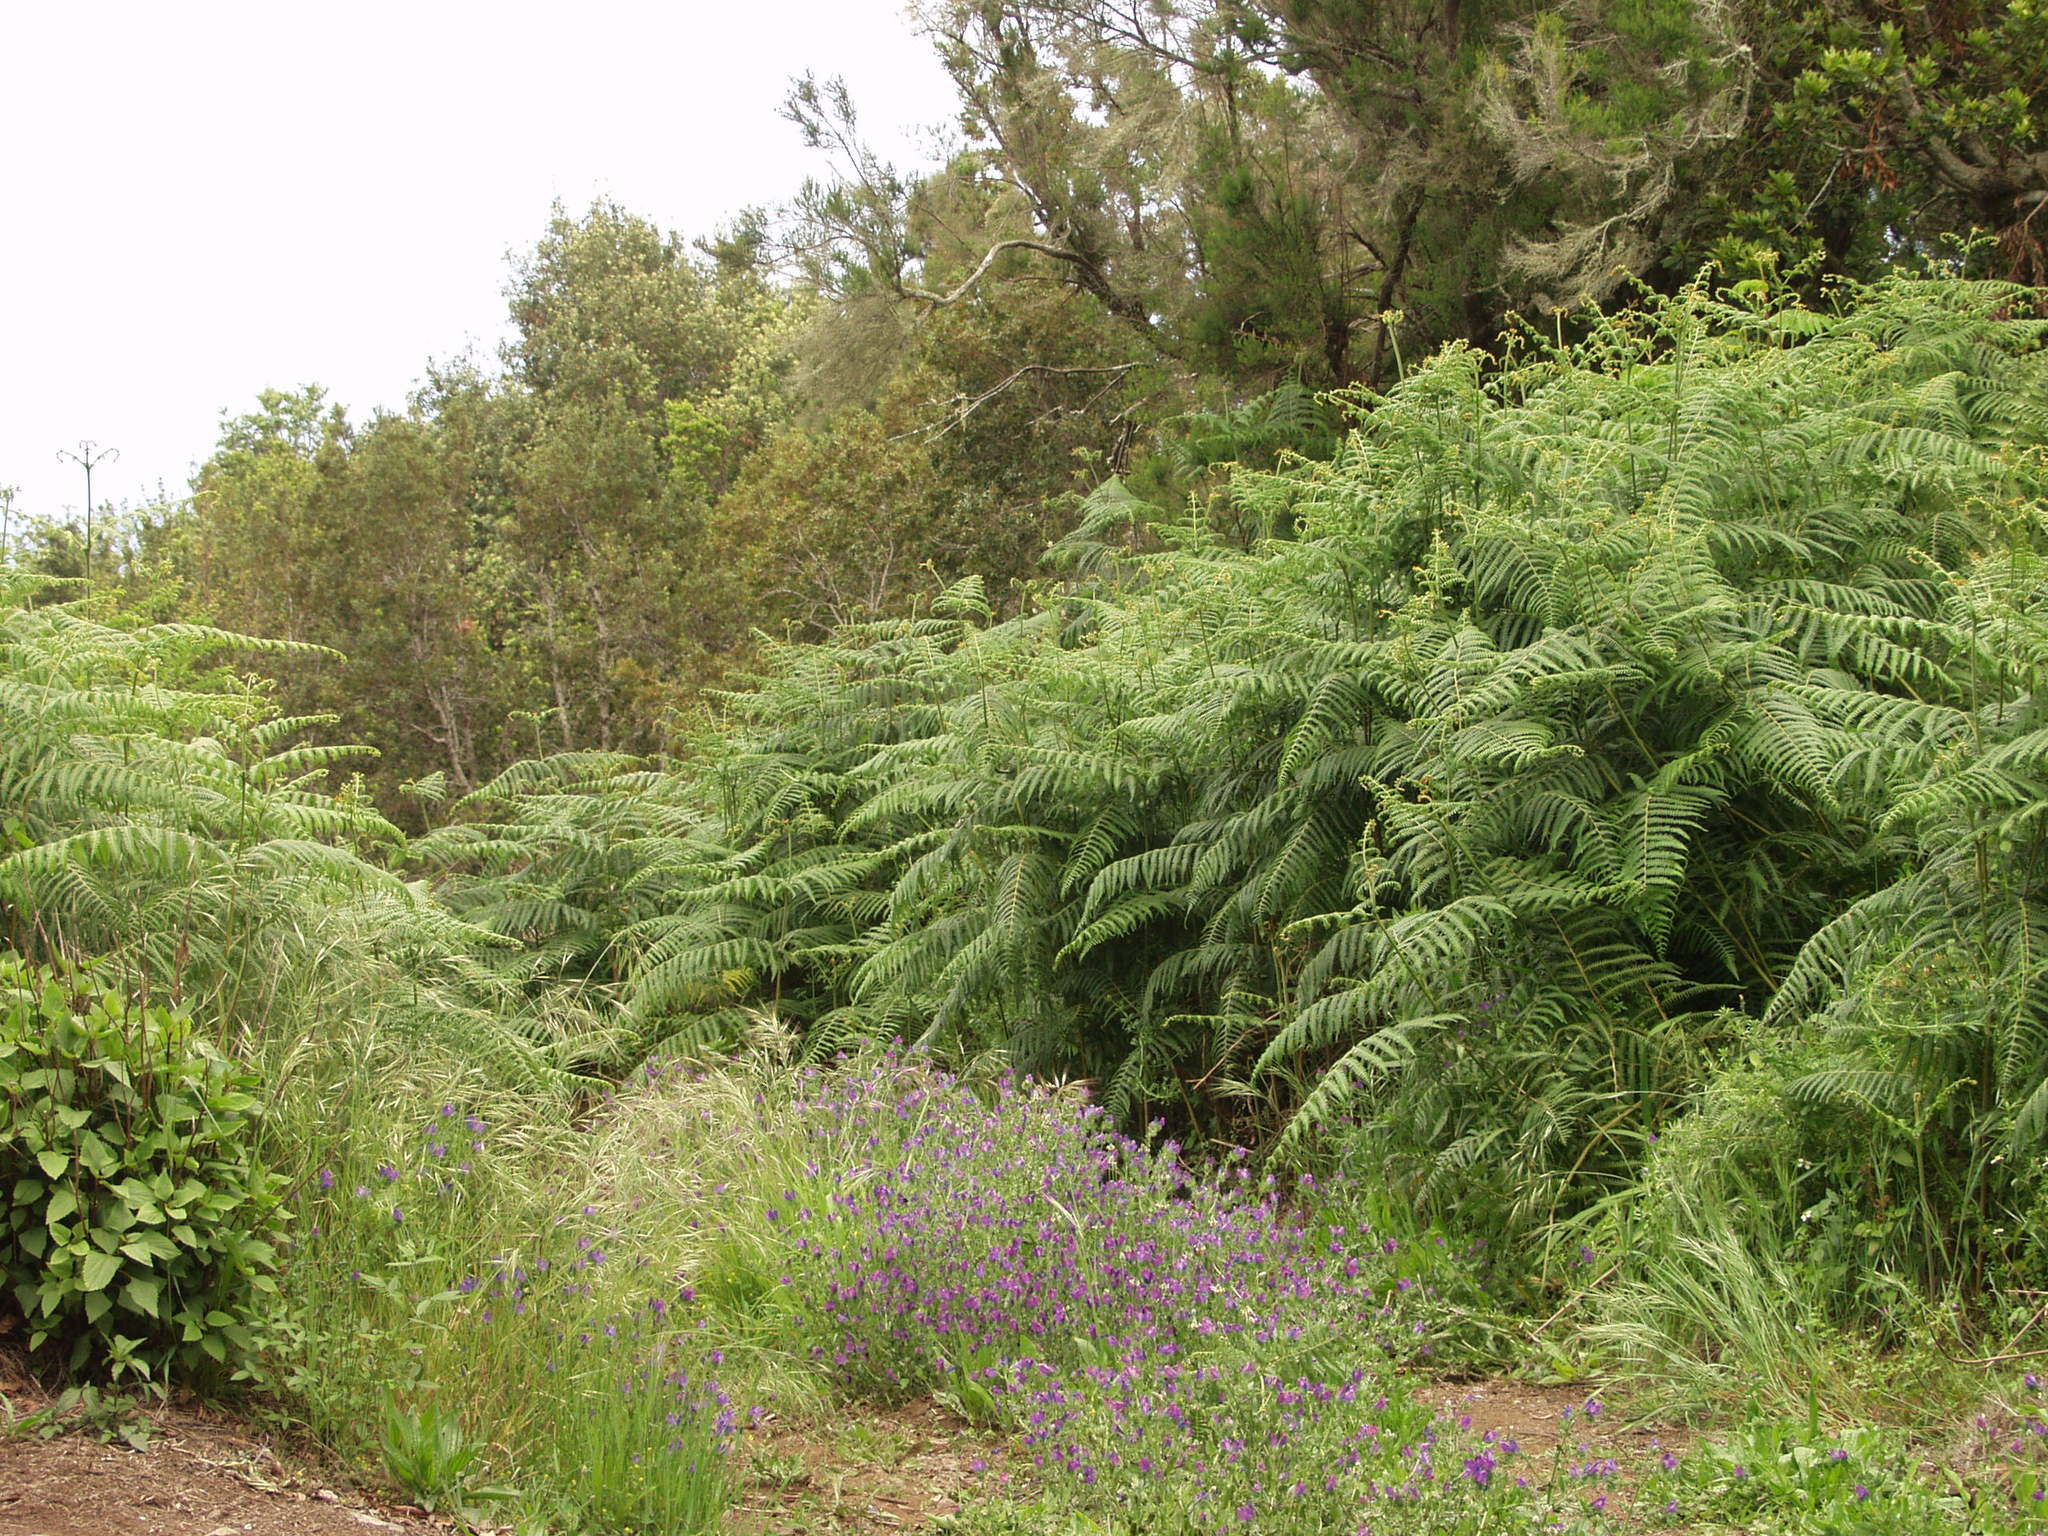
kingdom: Plantae
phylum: Tracheophyta
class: Polypodiopsida
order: Polypodiales
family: Dennstaedtiaceae
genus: Pteridium
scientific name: Pteridium aquilinum
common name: Bracken
